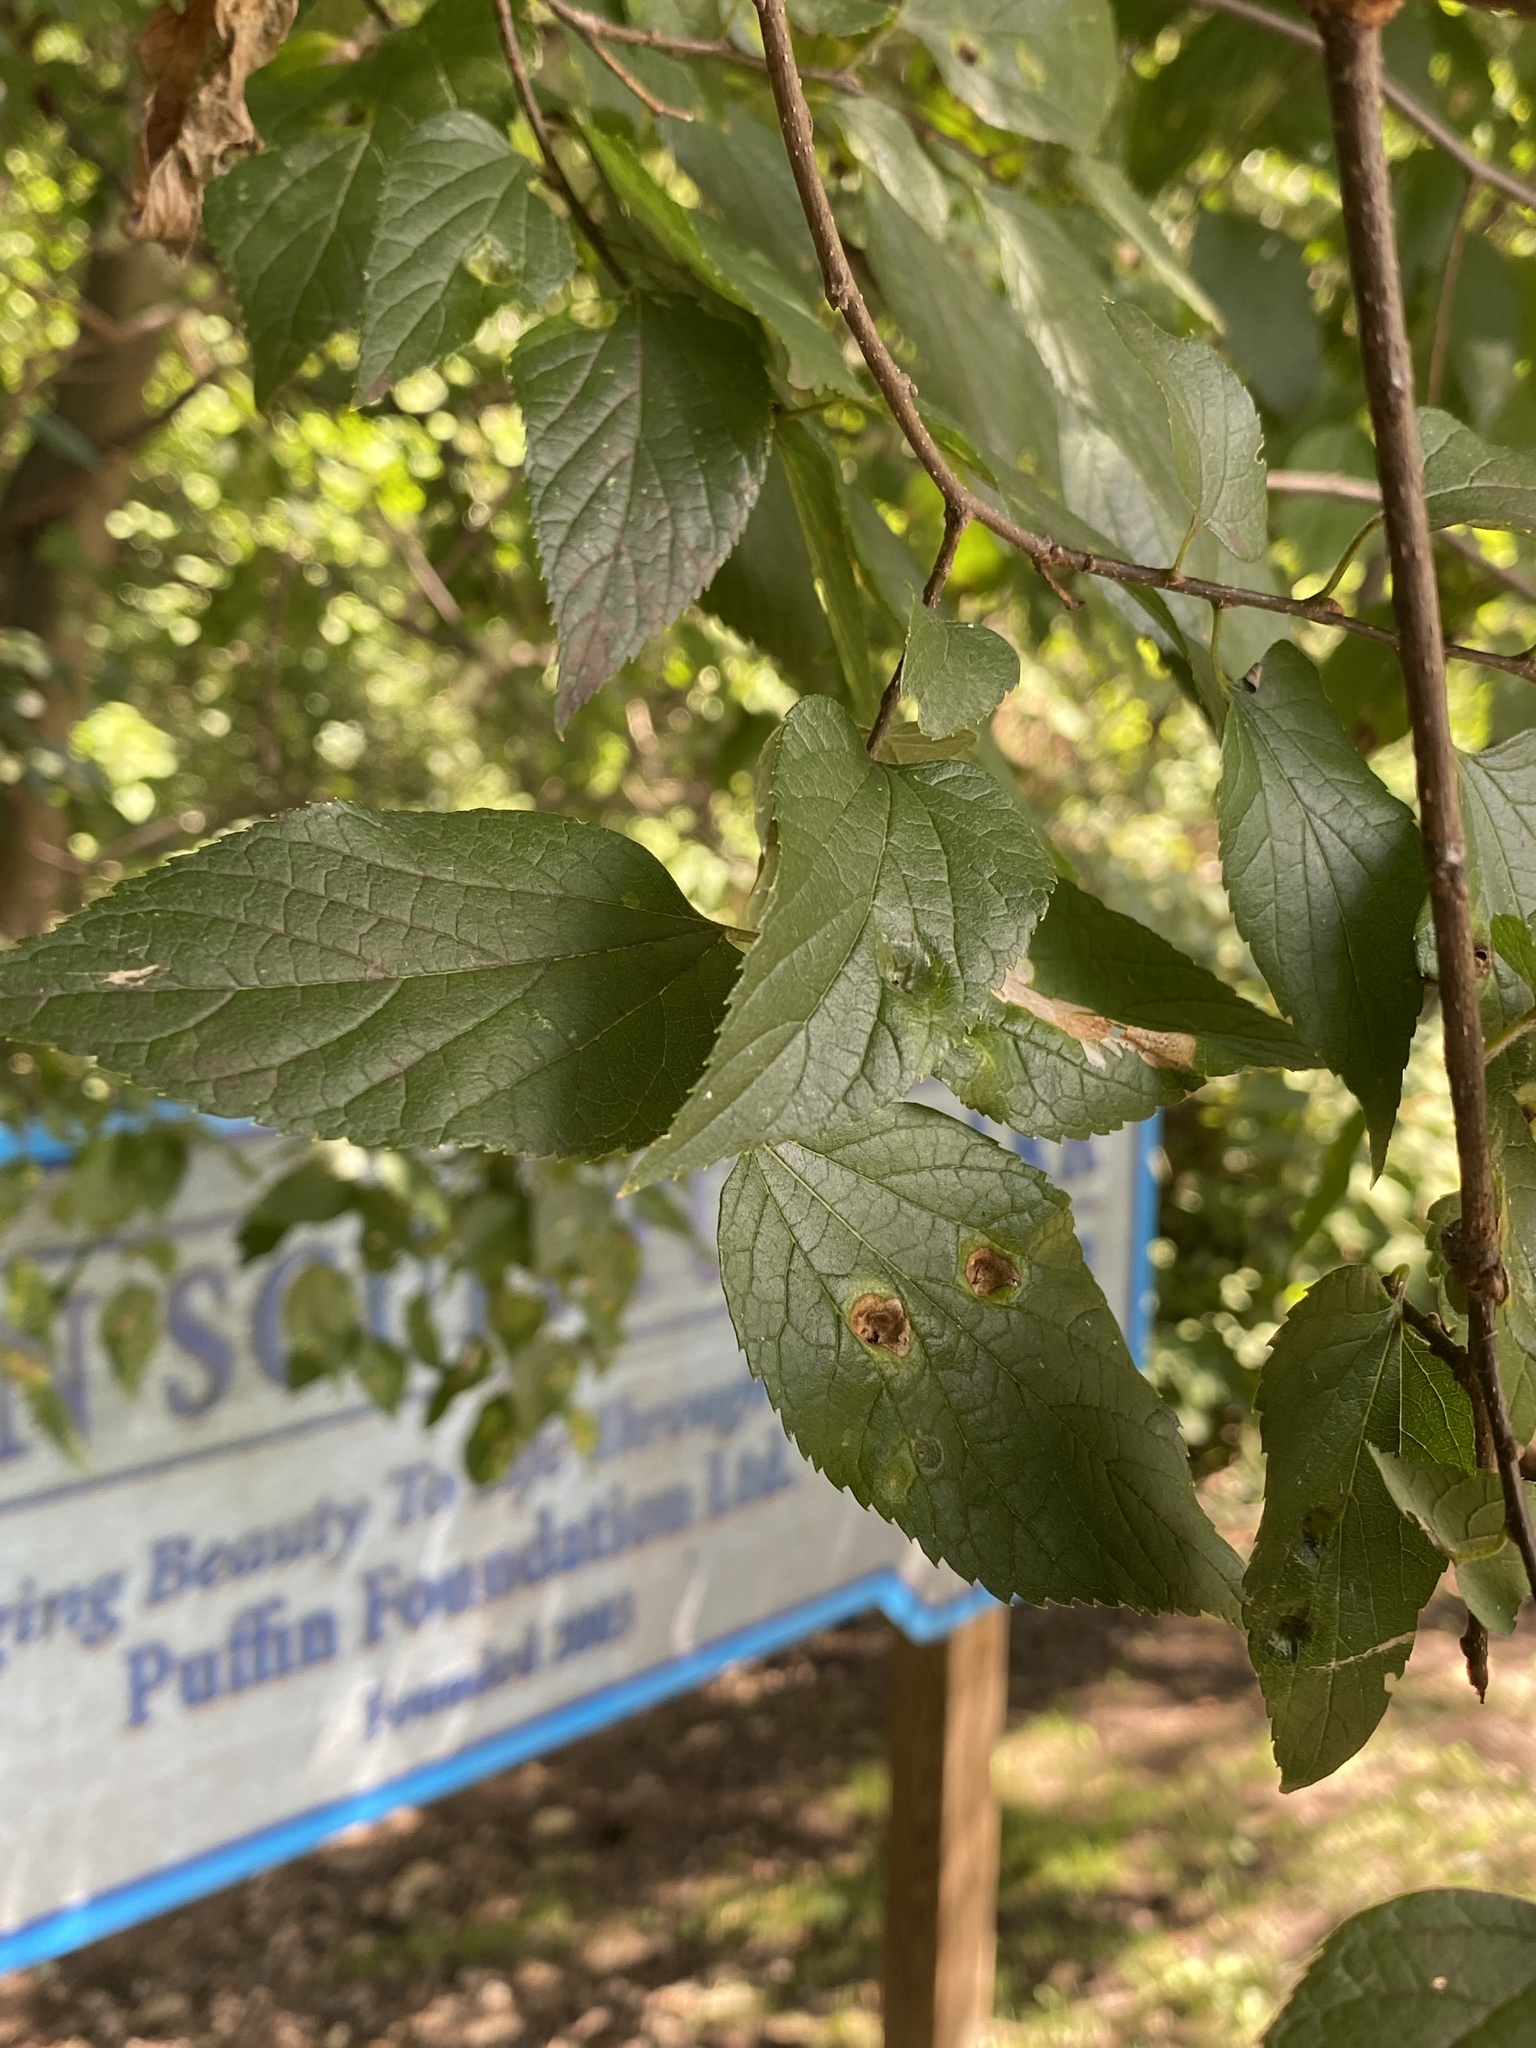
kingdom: Plantae
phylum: Tracheophyta
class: Magnoliopsida
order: Rosales
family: Cannabaceae
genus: Celtis
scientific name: Celtis occidentalis
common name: Common hackberry
